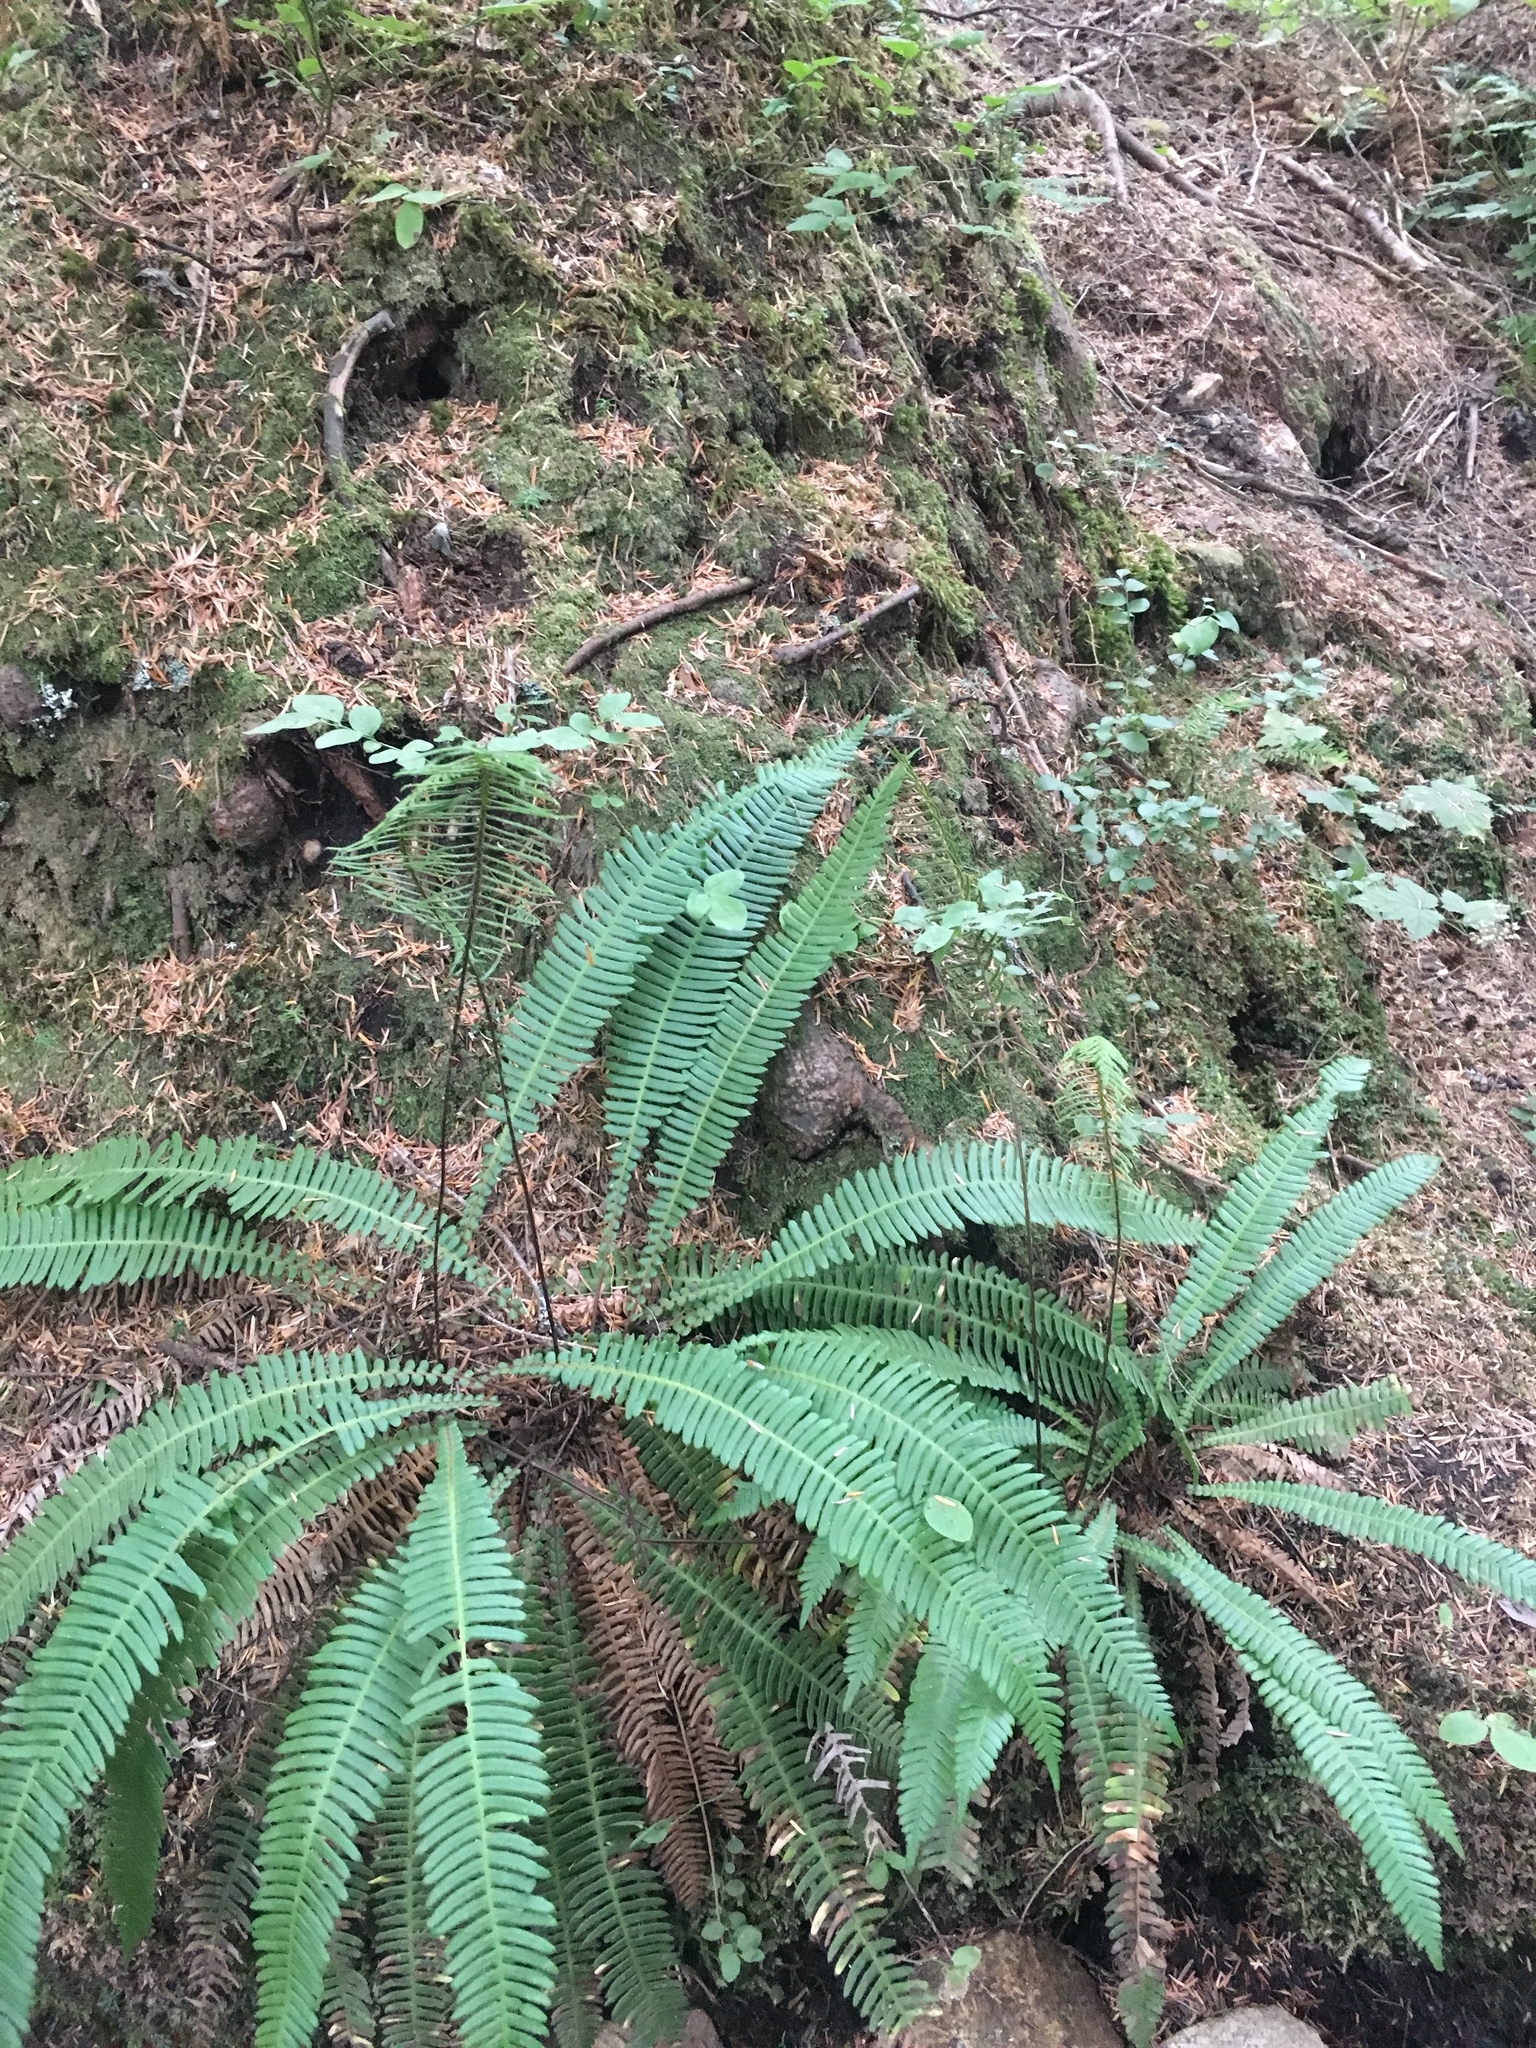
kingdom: Plantae
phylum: Tracheophyta
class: Polypodiopsida
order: Polypodiales
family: Blechnaceae
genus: Struthiopteris
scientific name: Struthiopteris spicant
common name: Deer fern
